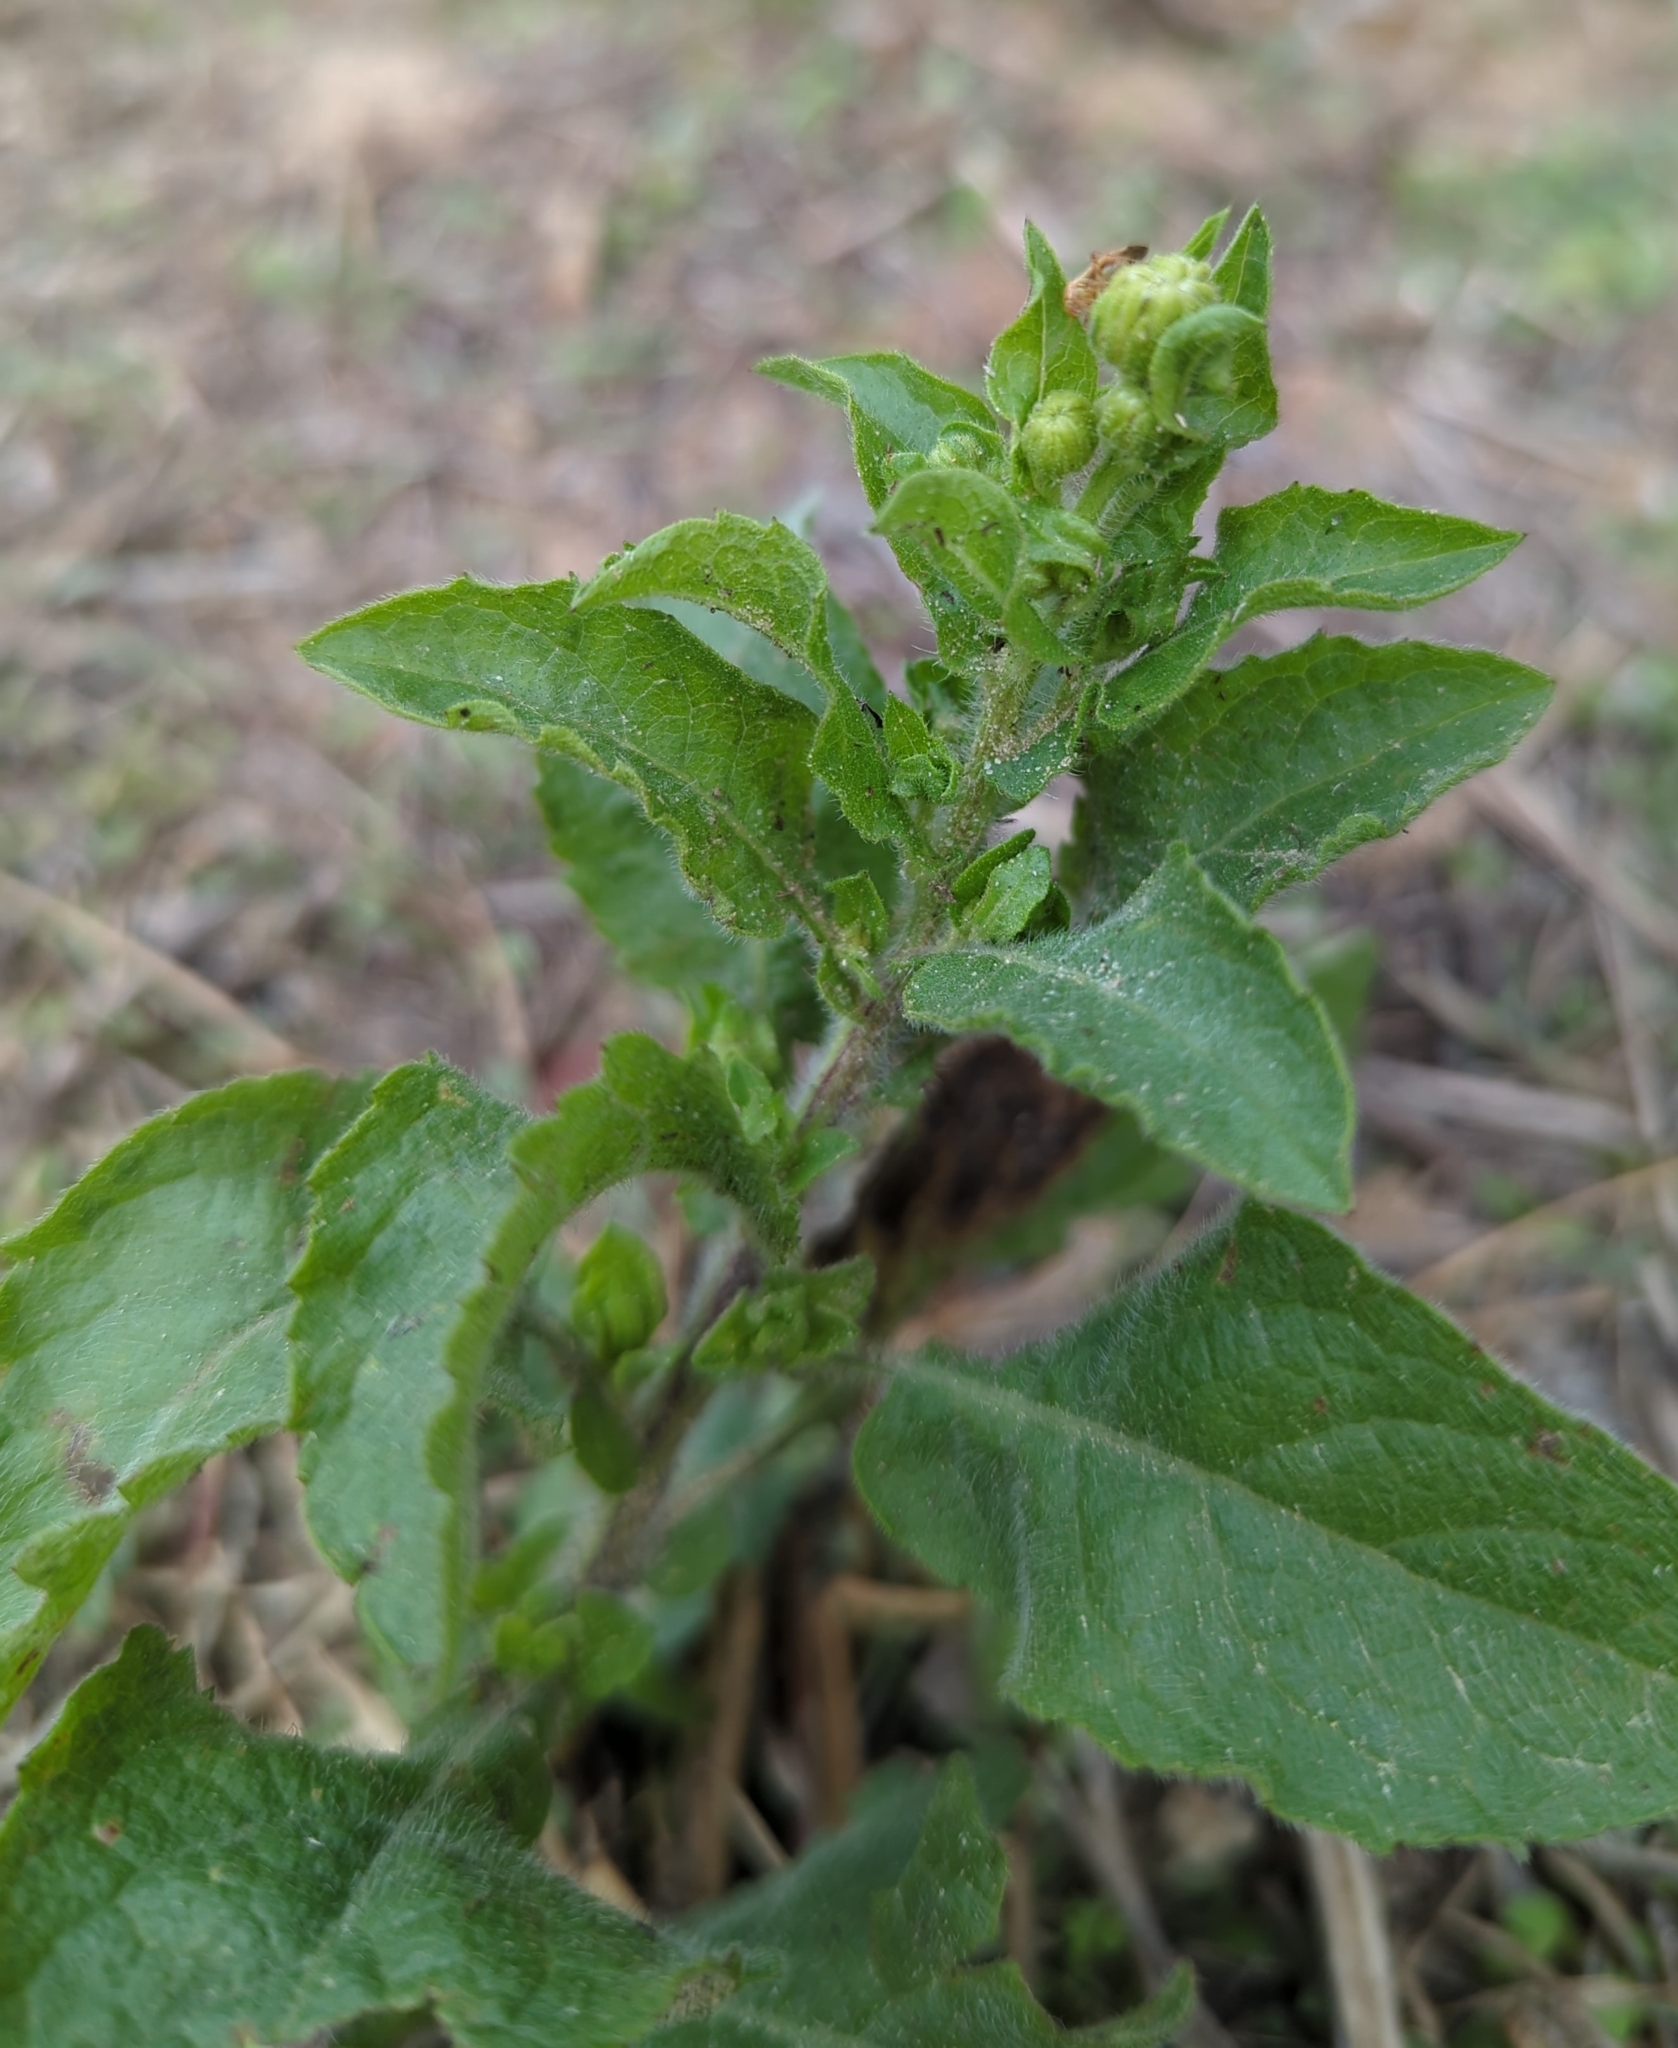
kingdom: Plantae
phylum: Tracheophyta
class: Magnoliopsida
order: Asterales
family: Asteraceae
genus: Heterotheca
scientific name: Heterotheca subaxillaris
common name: Camphorweed
